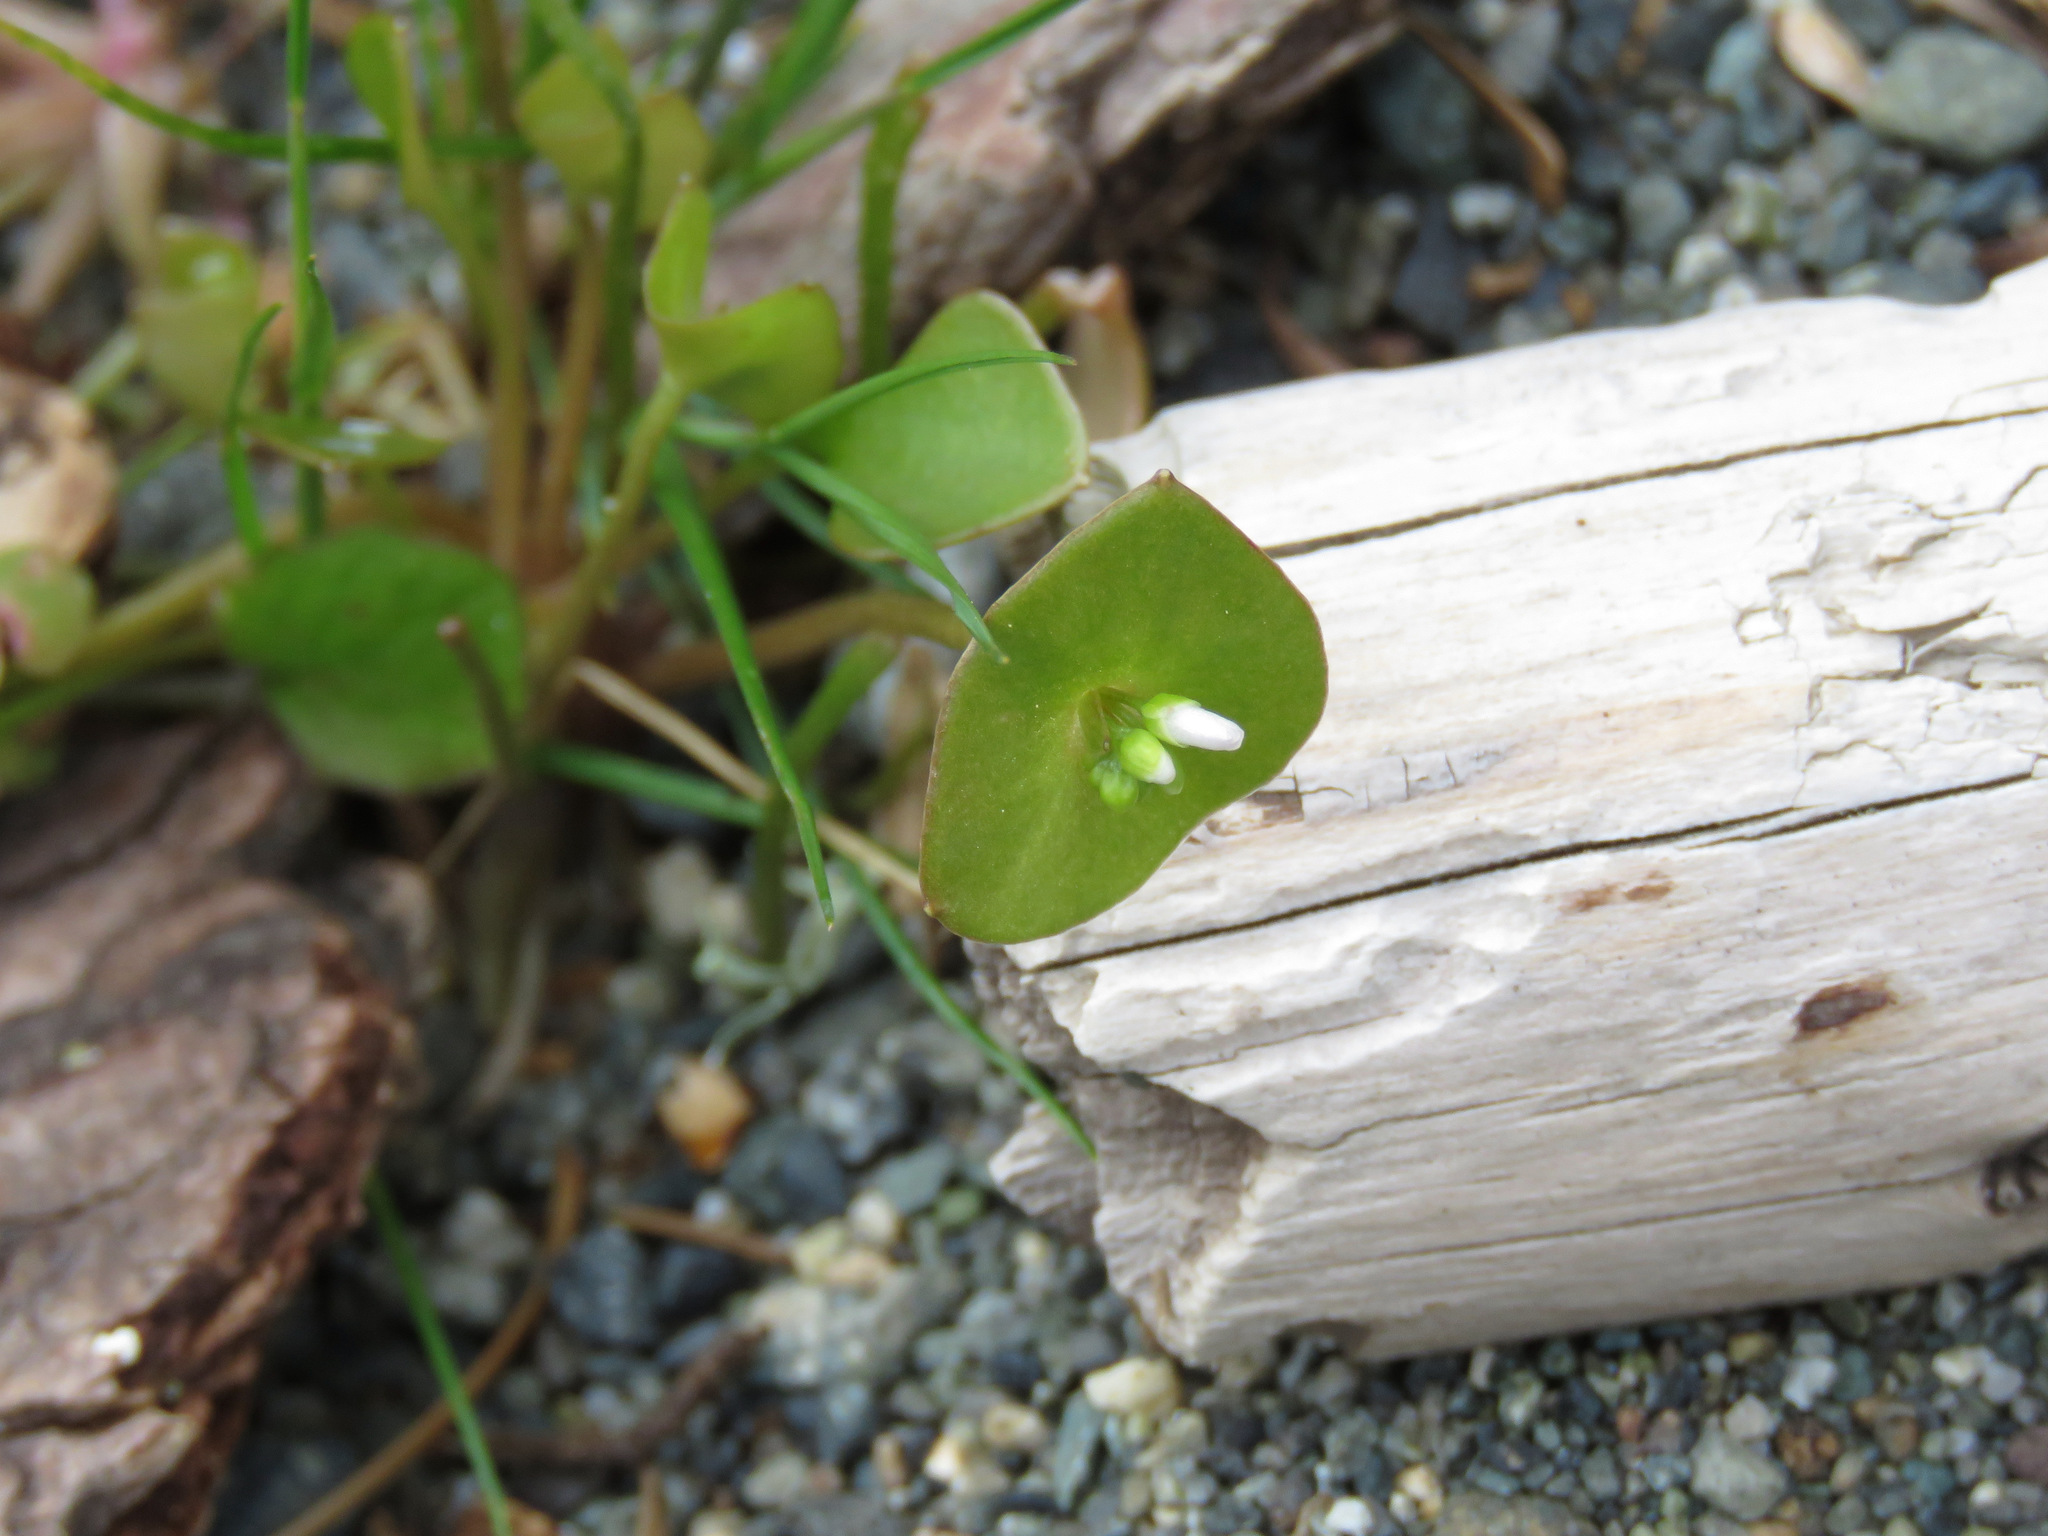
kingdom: Plantae
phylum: Tracheophyta
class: Magnoliopsida
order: Caryophyllales
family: Montiaceae
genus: Claytonia
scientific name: Claytonia perfoliata
